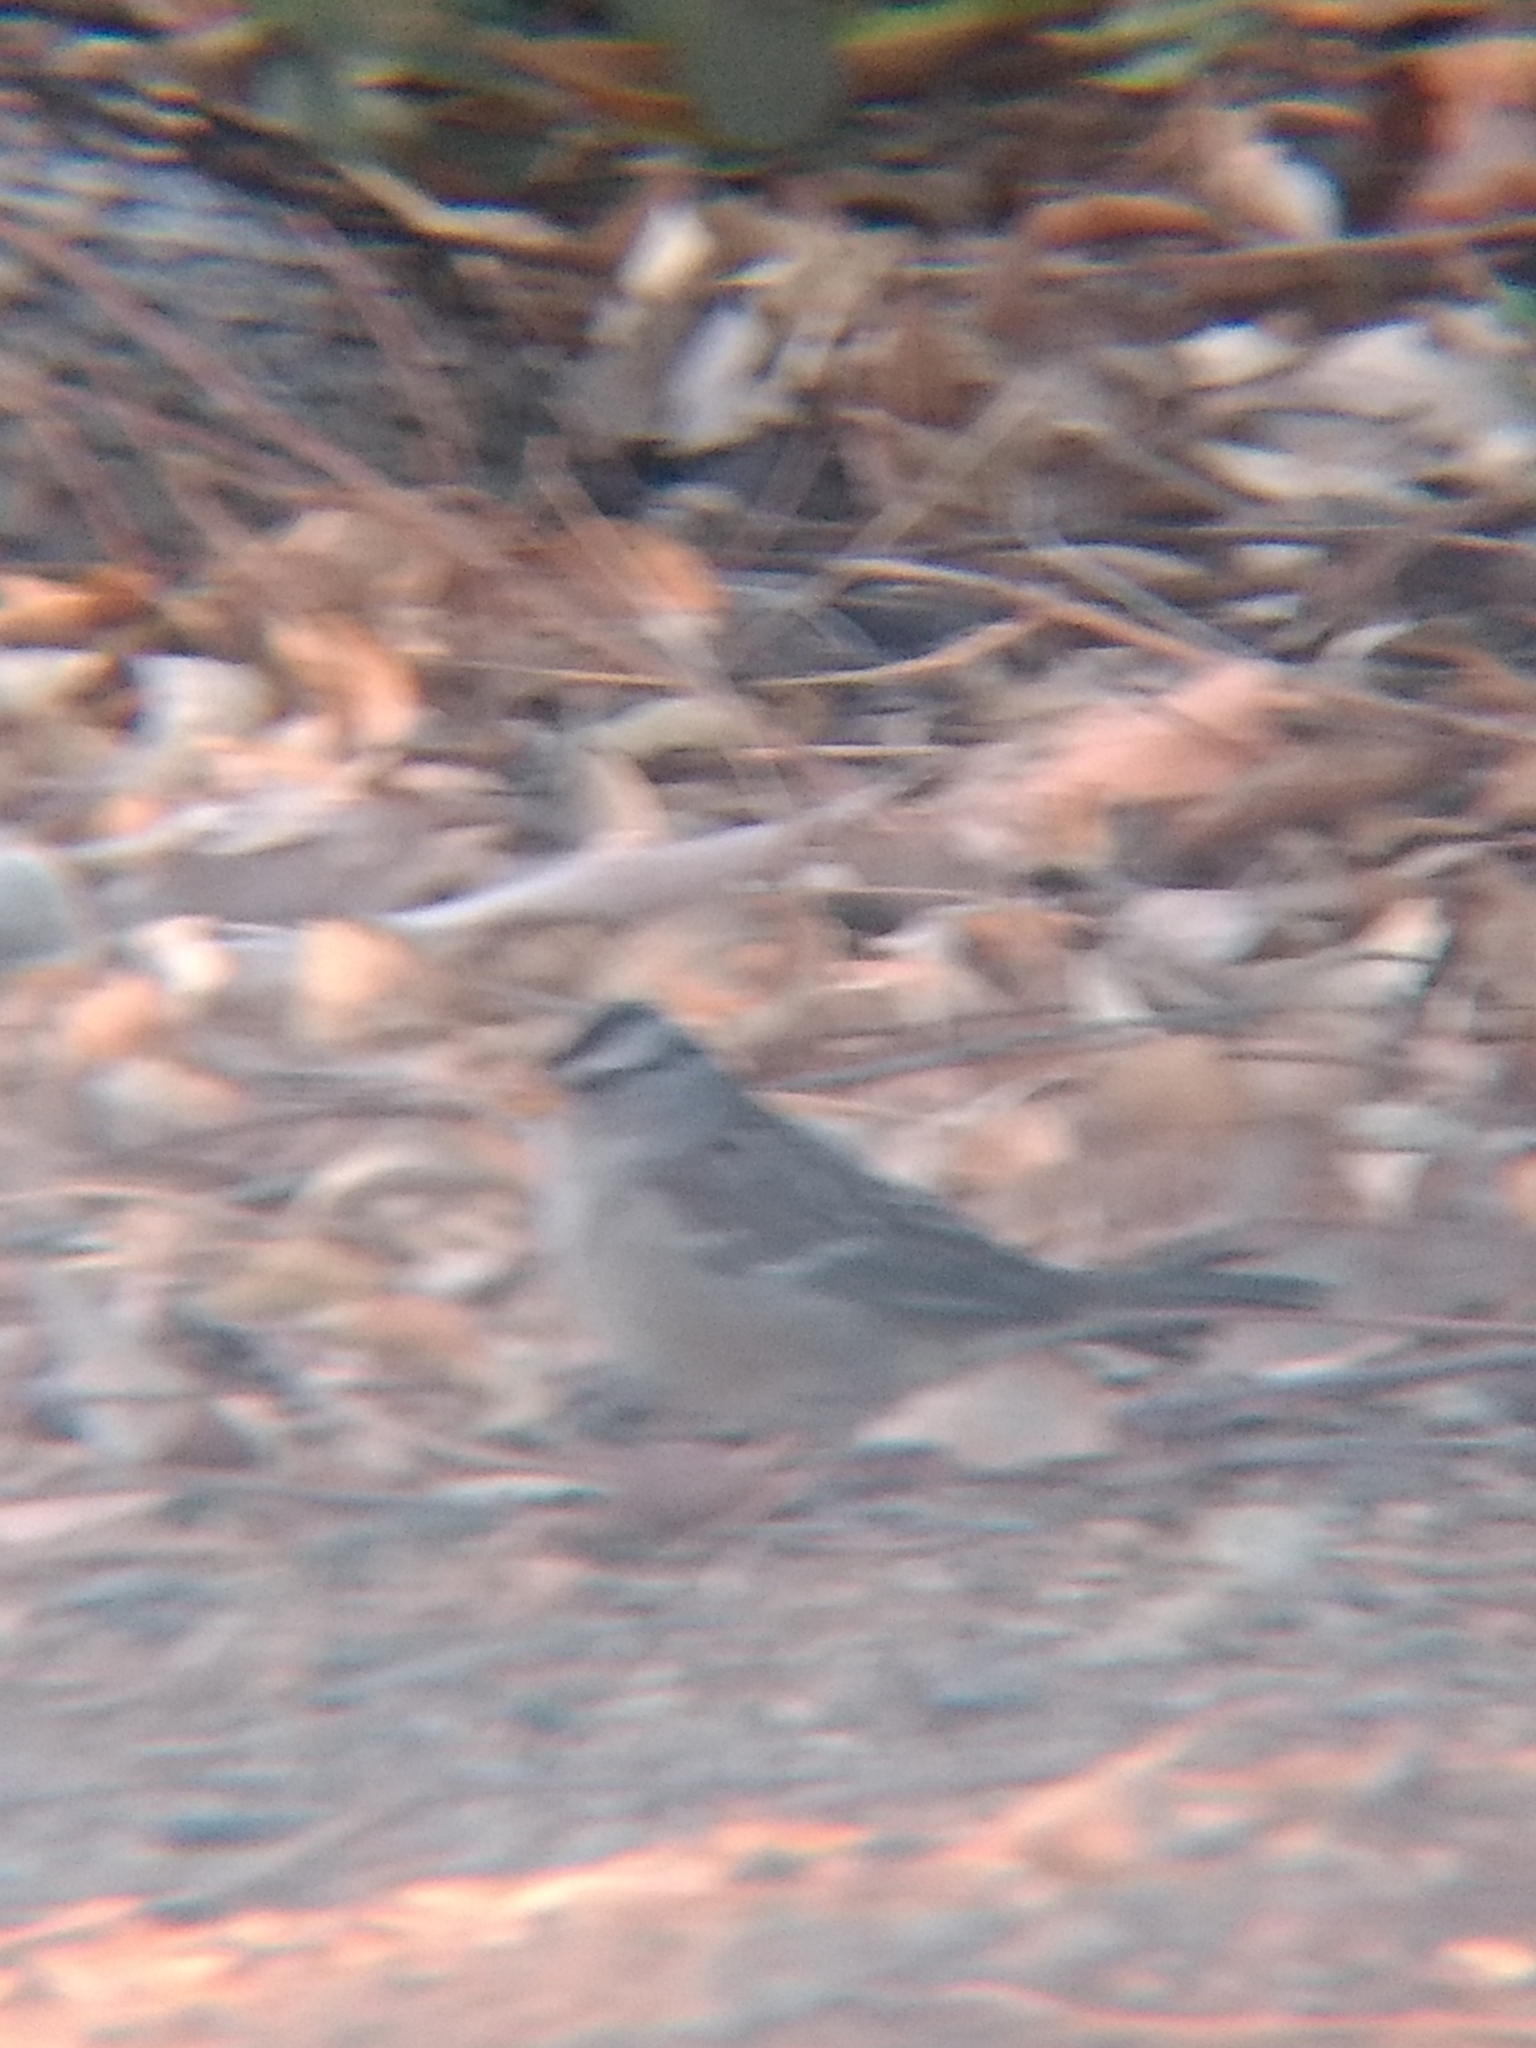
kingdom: Animalia
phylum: Chordata
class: Aves
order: Passeriformes
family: Passerellidae
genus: Zonotrichia
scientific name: Zonotrichia leucophrys
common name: White-crowned sparrow
